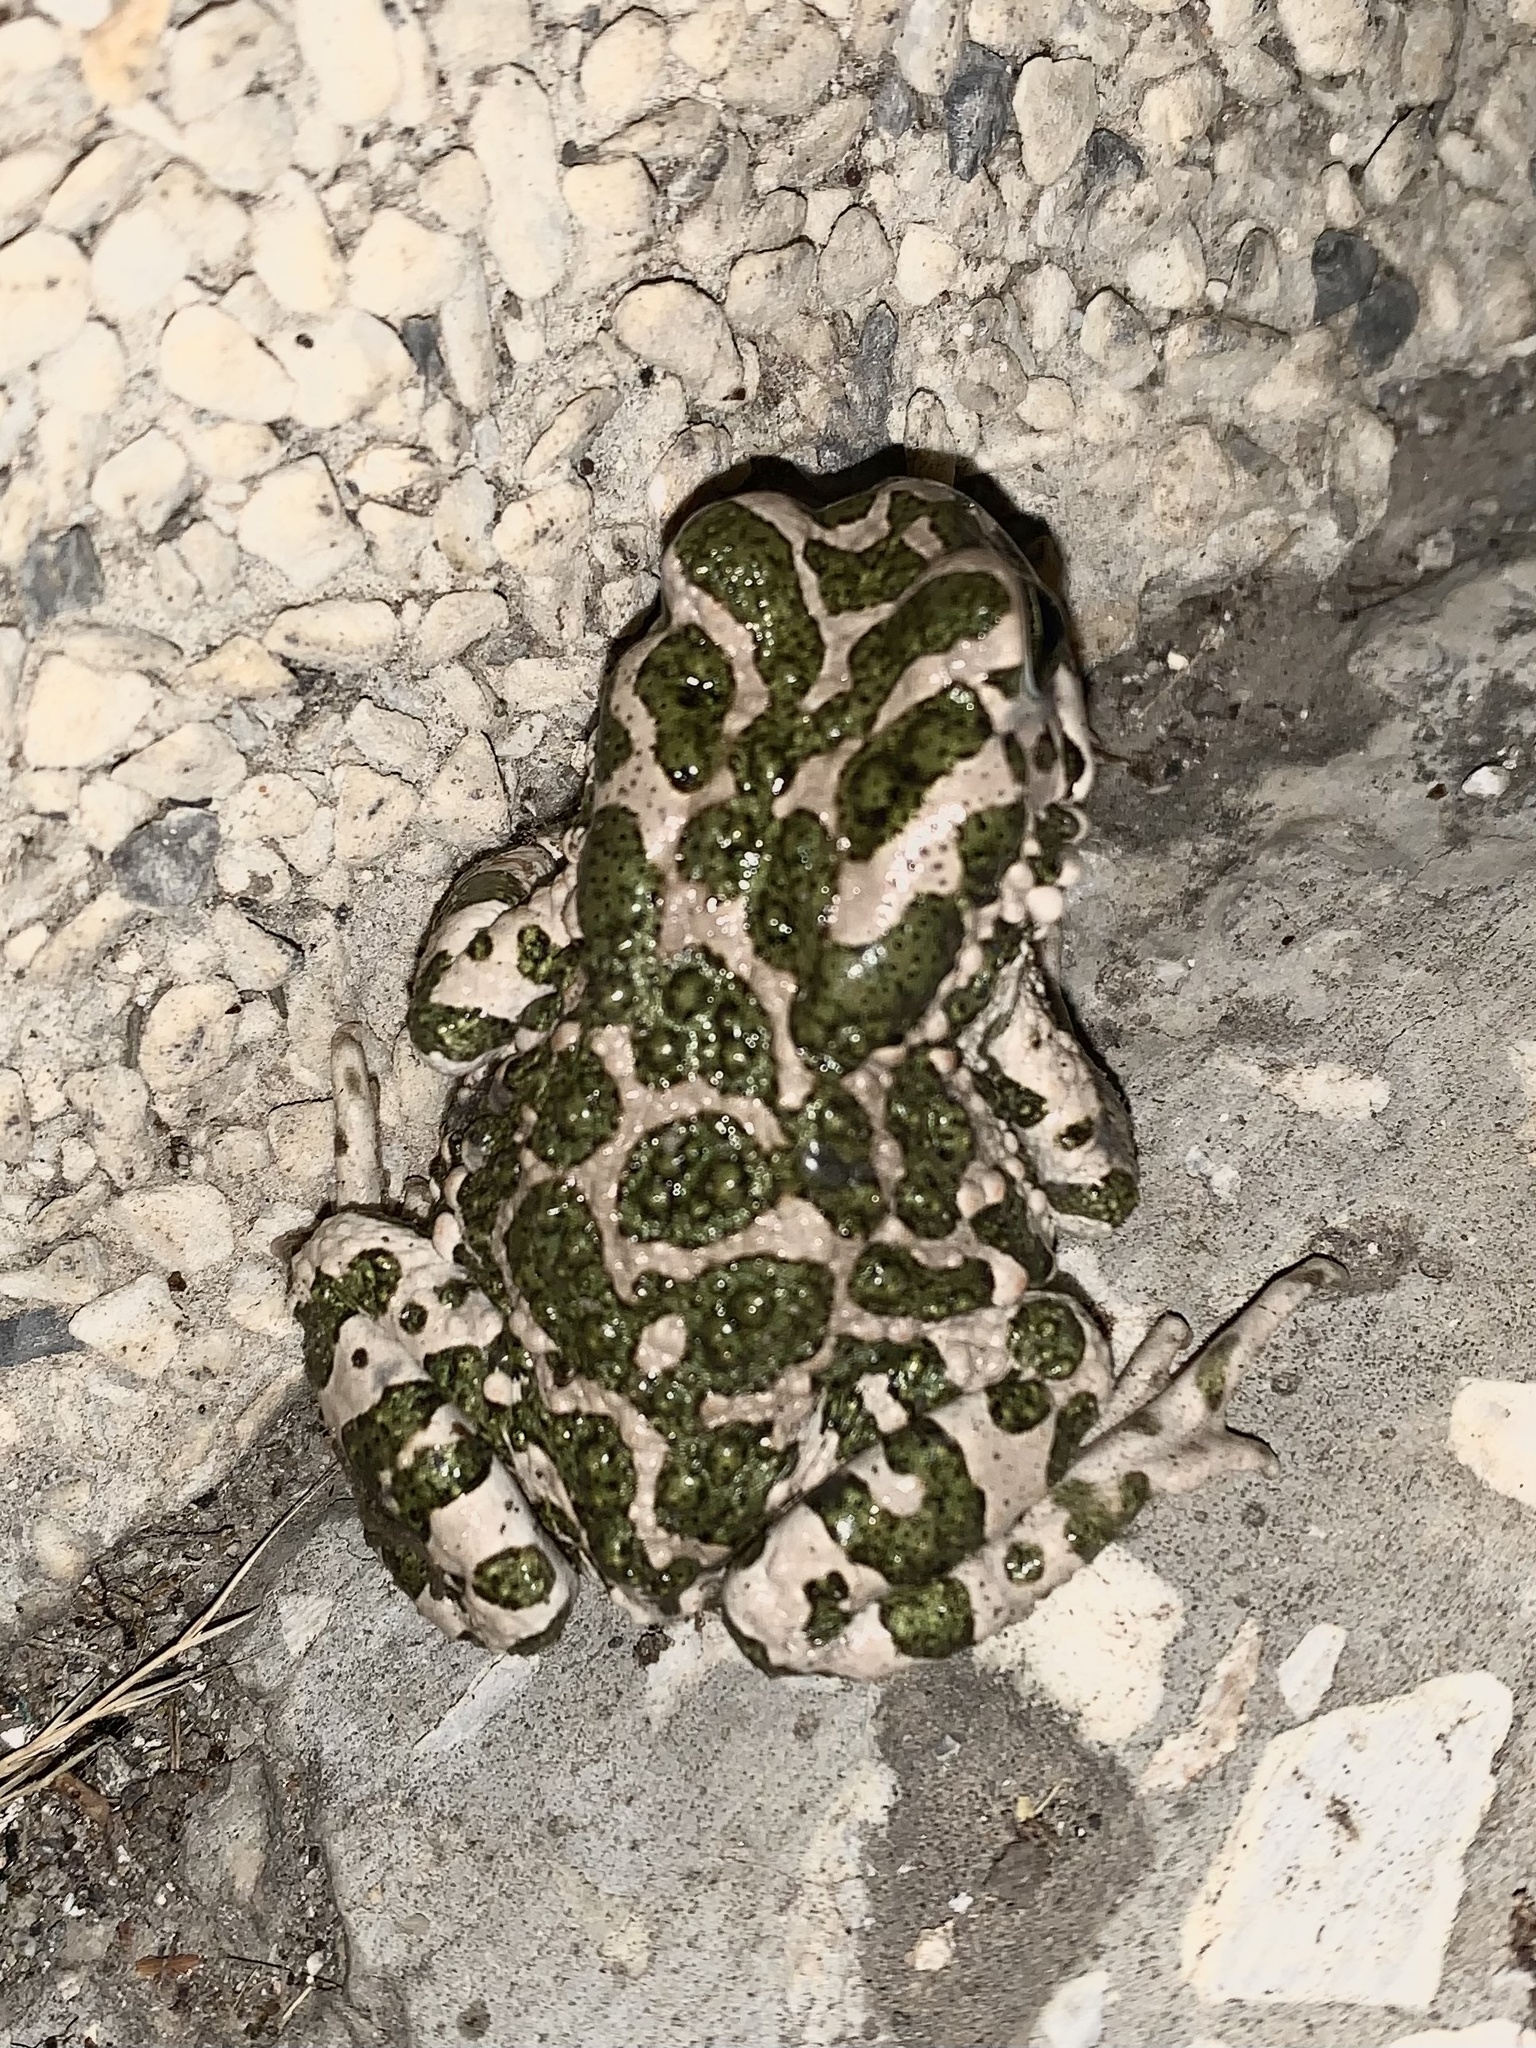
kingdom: Animalia
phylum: Chordata
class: Amphibia
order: Anura
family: Bufonidae
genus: Bufotes
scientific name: Bufotes viridis
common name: European green toad
